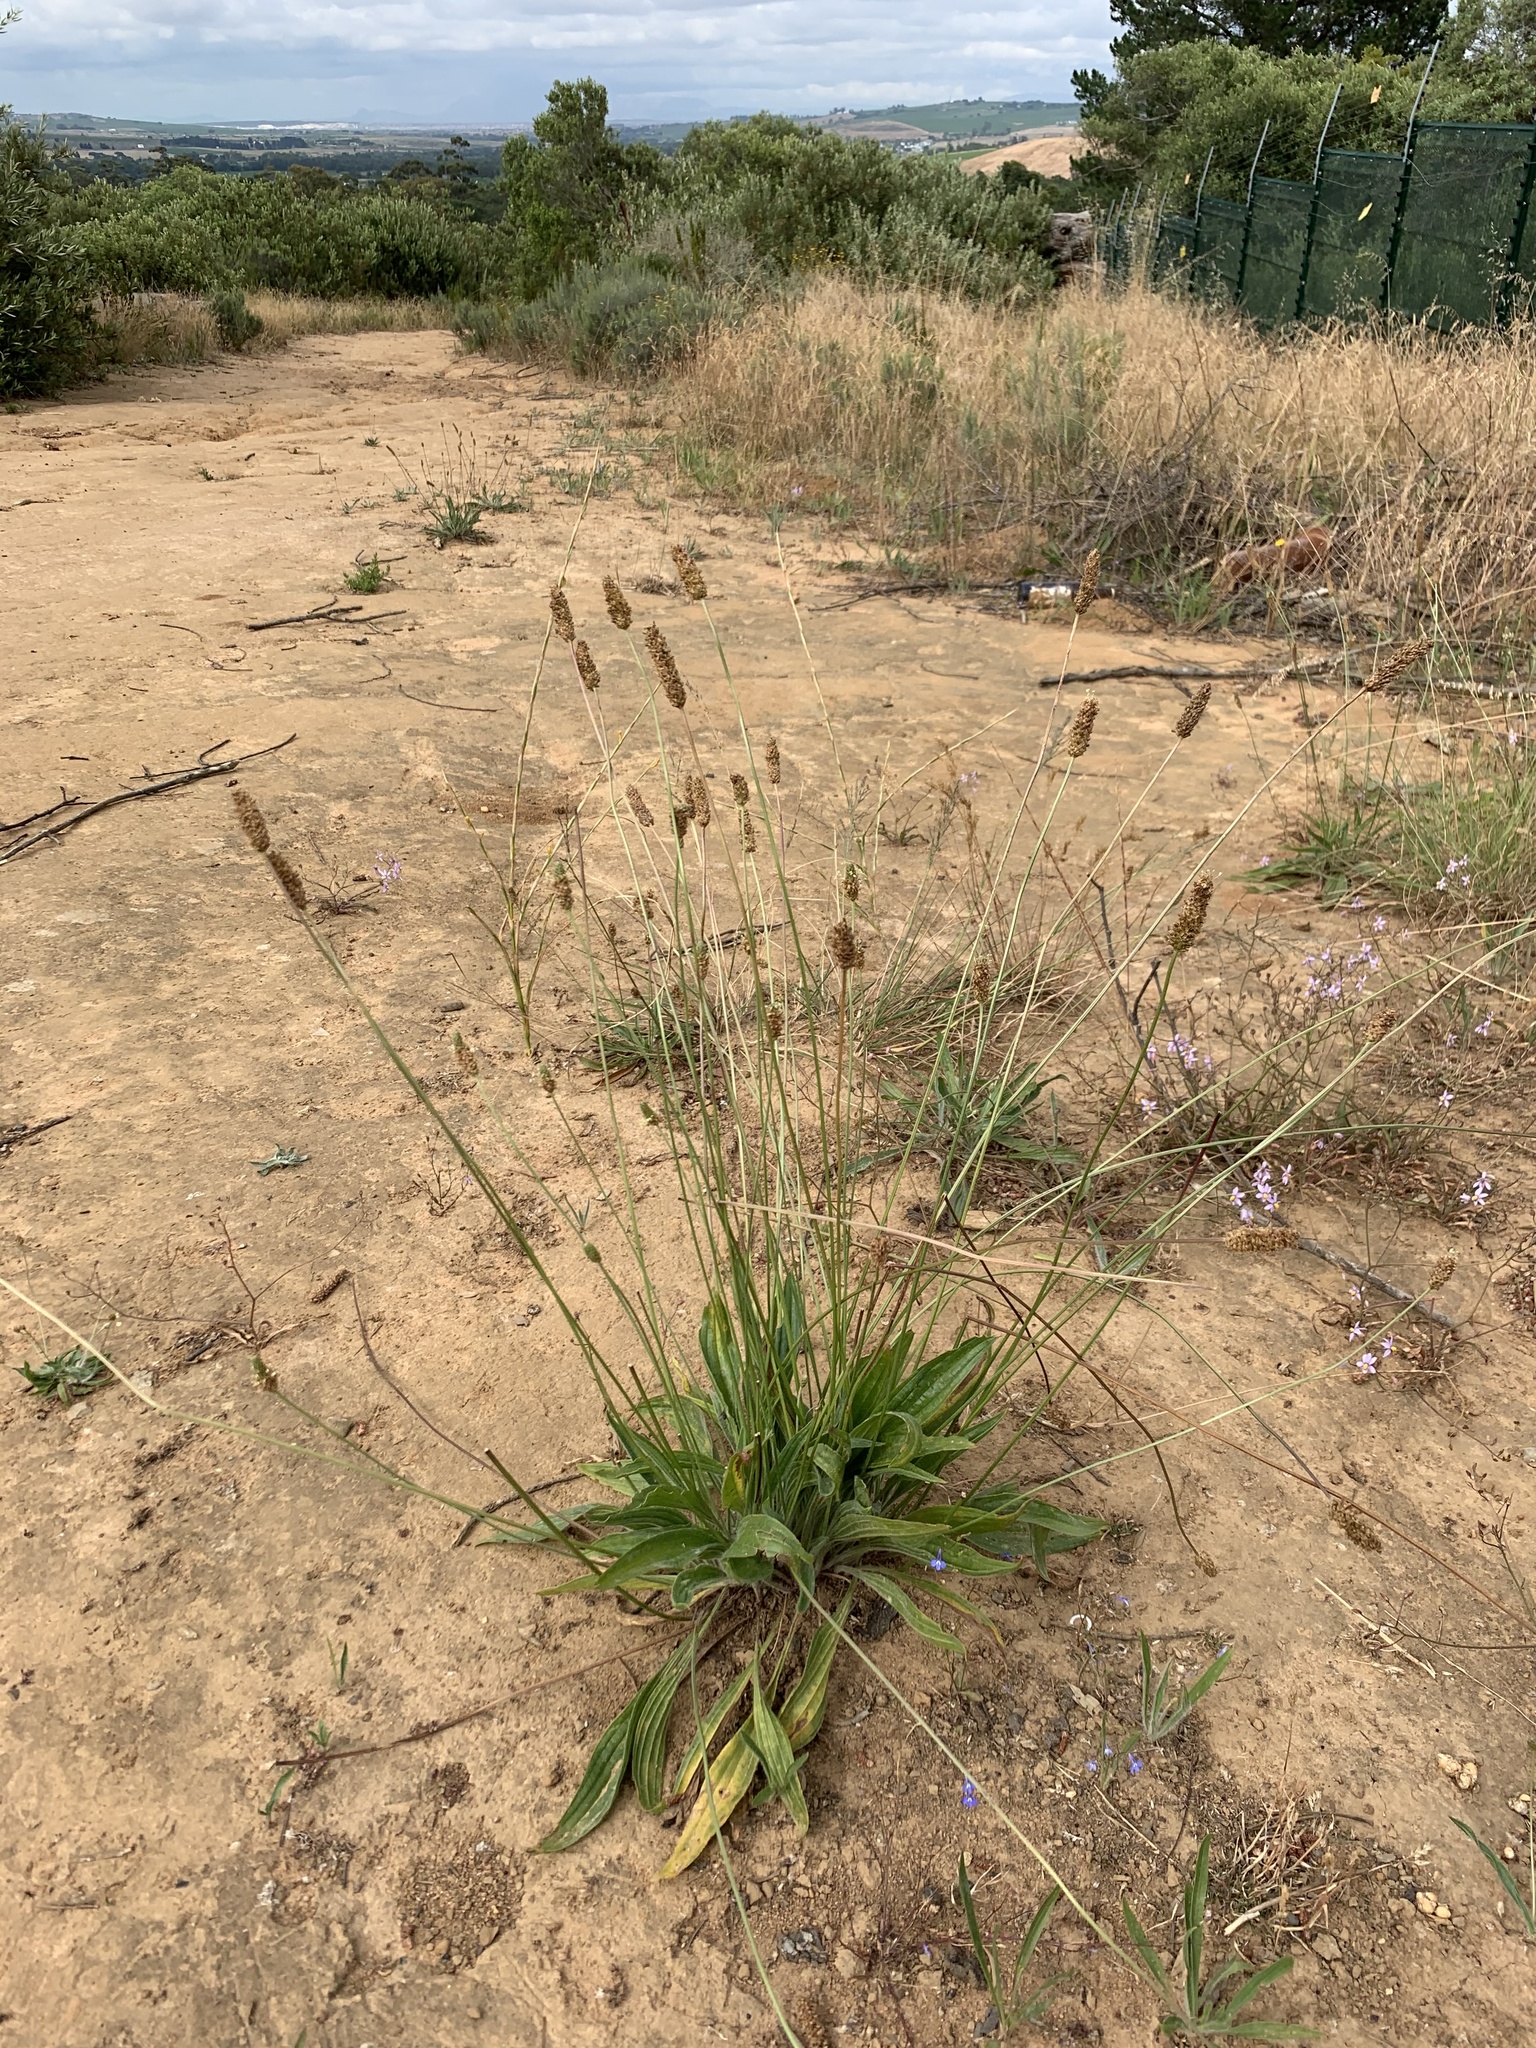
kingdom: Plantae
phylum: Tracheophyta
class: Magnoliopsida
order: Lamiales
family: Plantaginaceae
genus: Plantago
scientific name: Plantago lanceolata
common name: Ribwort plantain
